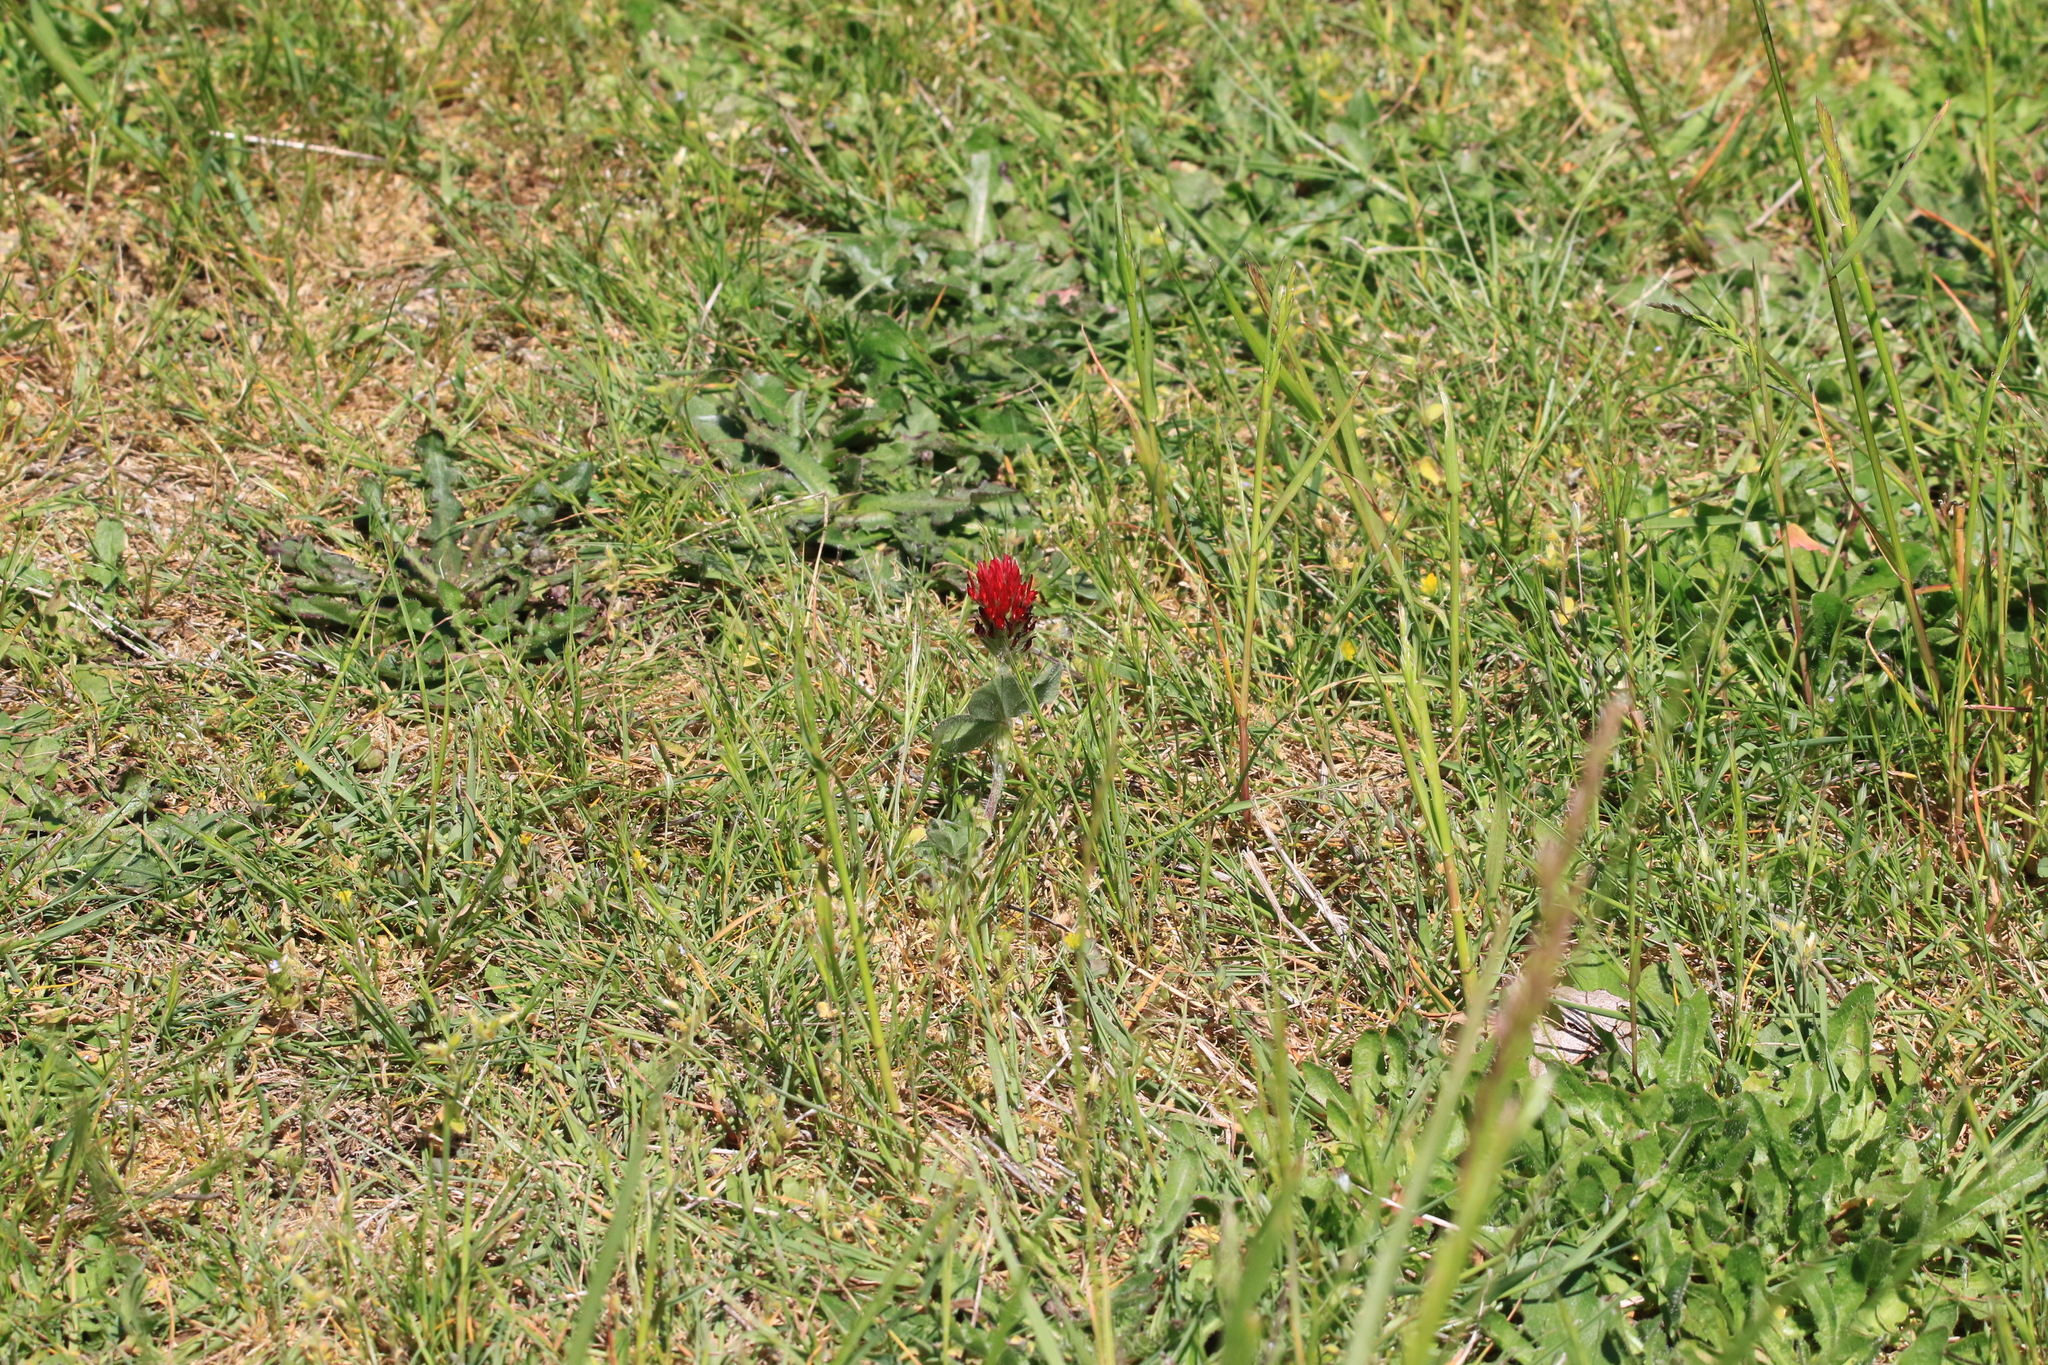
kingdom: Plantae
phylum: Tracheophyta
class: Magnoliopsida
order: Fabales
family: Fabaceae
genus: Trifolium
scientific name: Trifolium incarnatum
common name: Crimson clover
